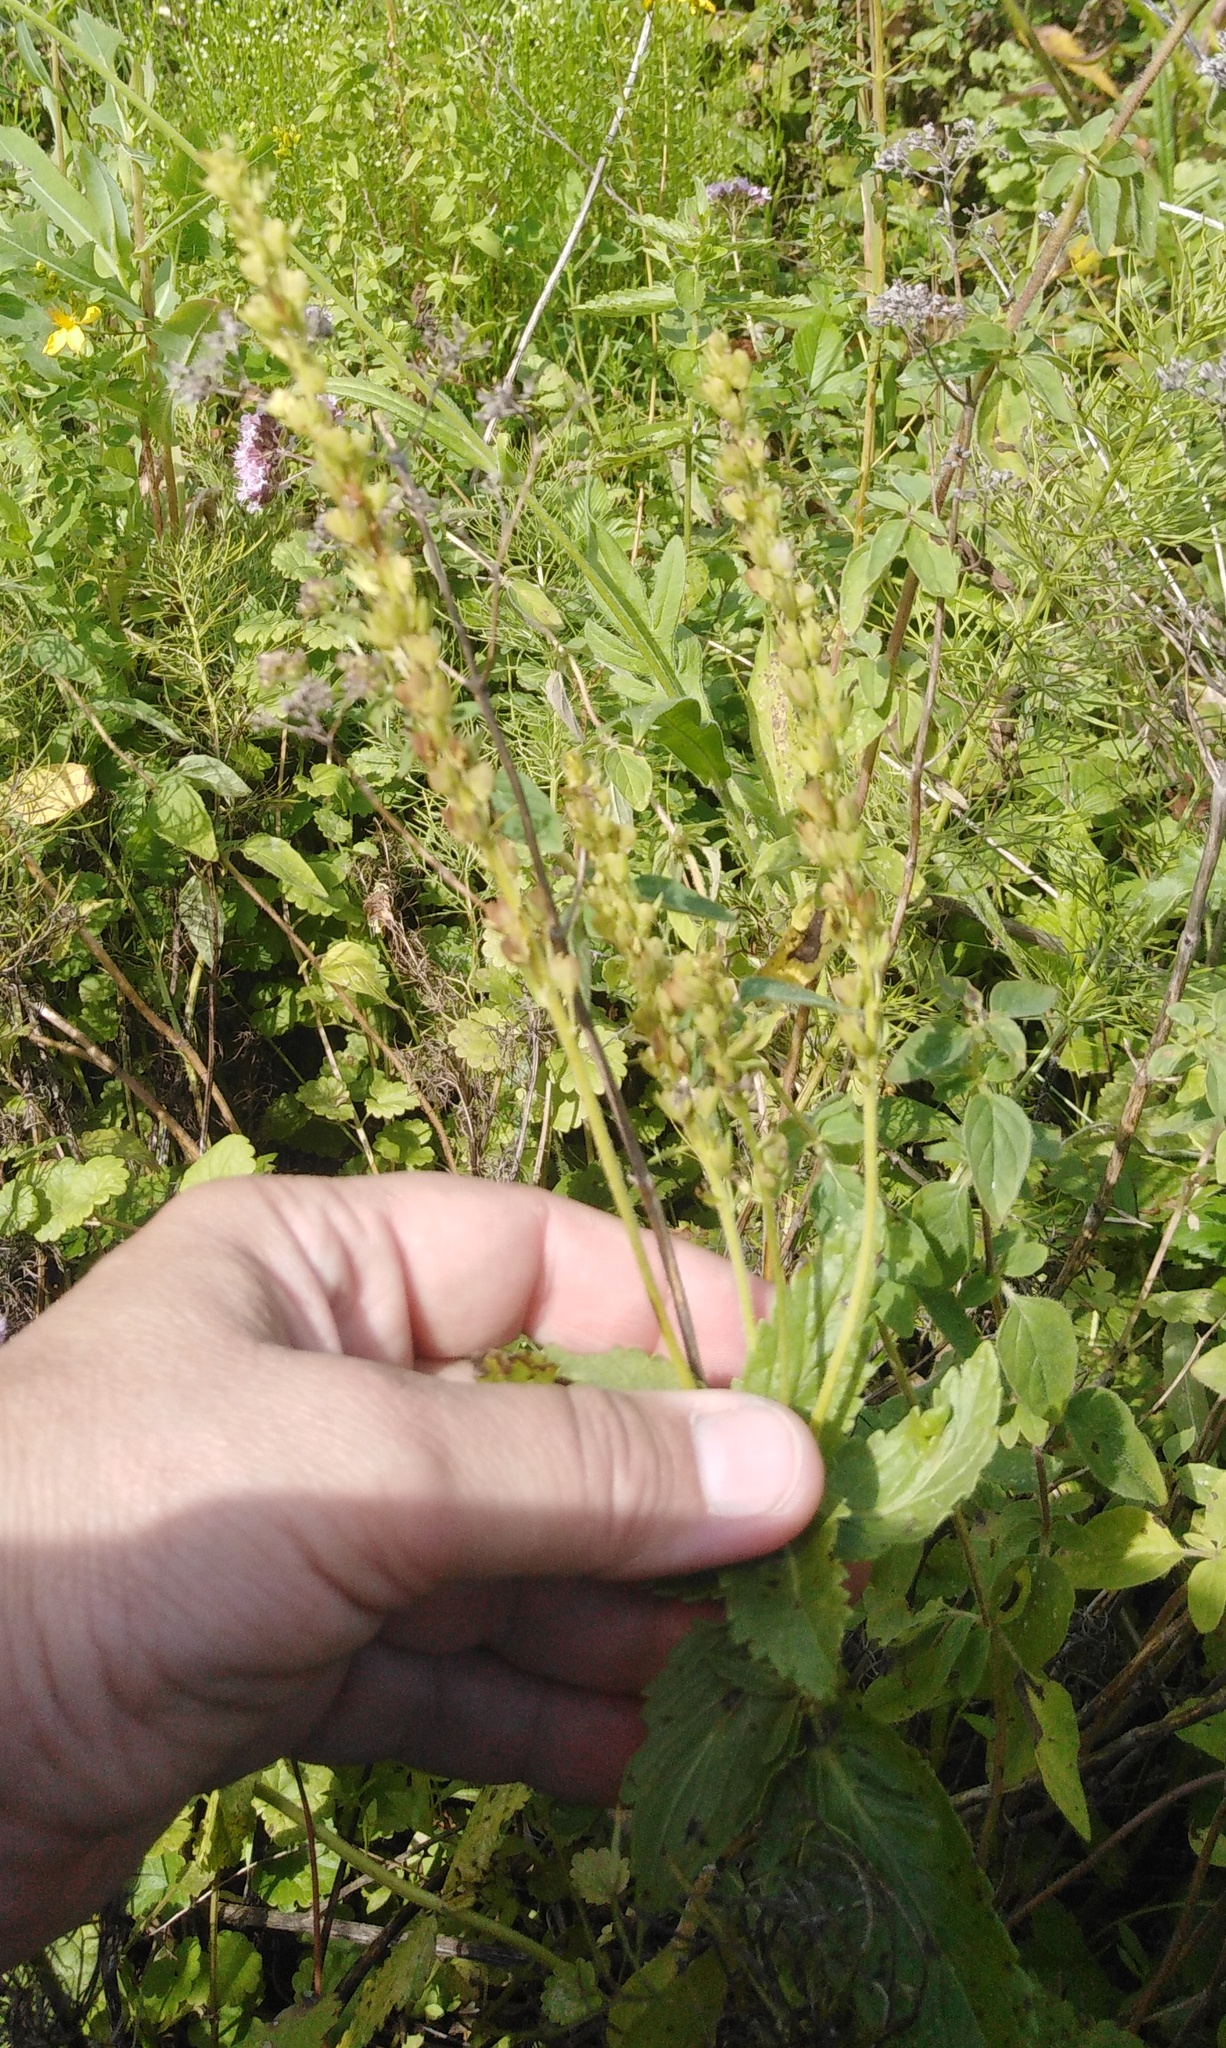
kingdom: Plantae
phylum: Tracheophyta
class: Magnoliopsida
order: Lamiales
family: Plantaginaceae
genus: Veronica
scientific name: Veronica teucrium
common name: Large speedwell
